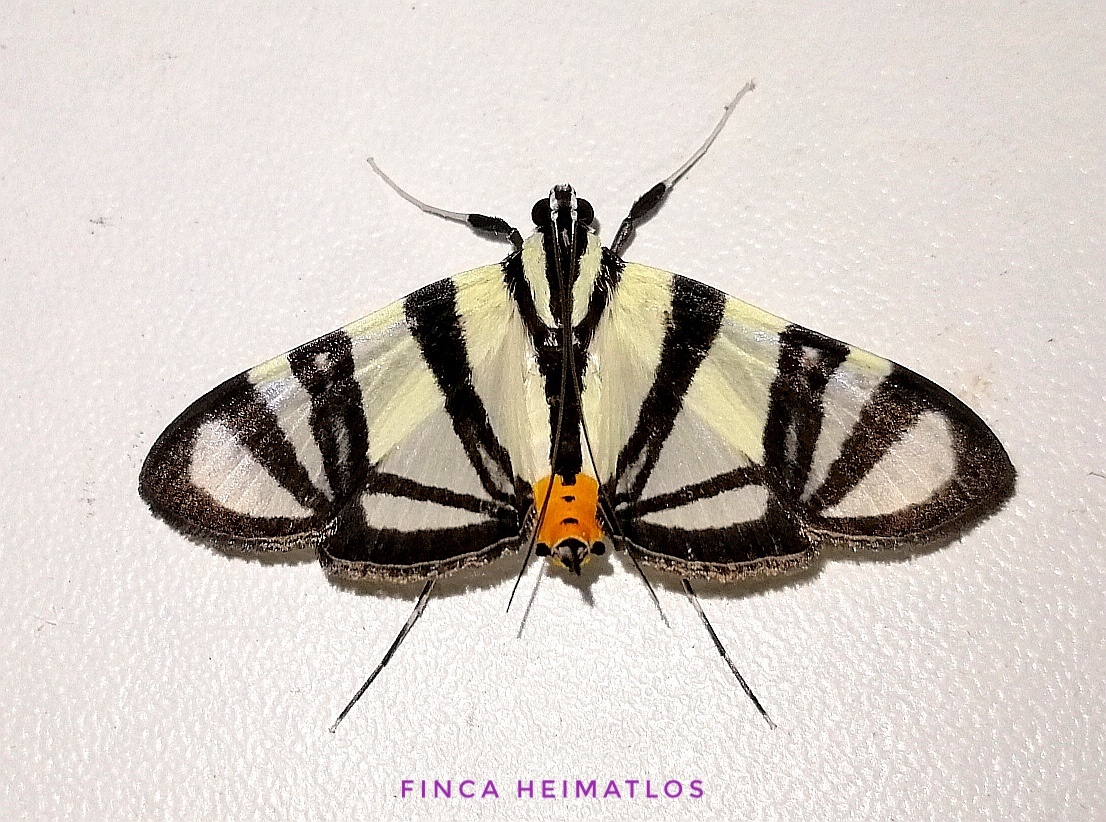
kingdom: Animalia
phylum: Arthropoda
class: Insecta
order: Lepidoptera
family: Crambidae
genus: Conchylodes
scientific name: Conchylodes nolckenialis
